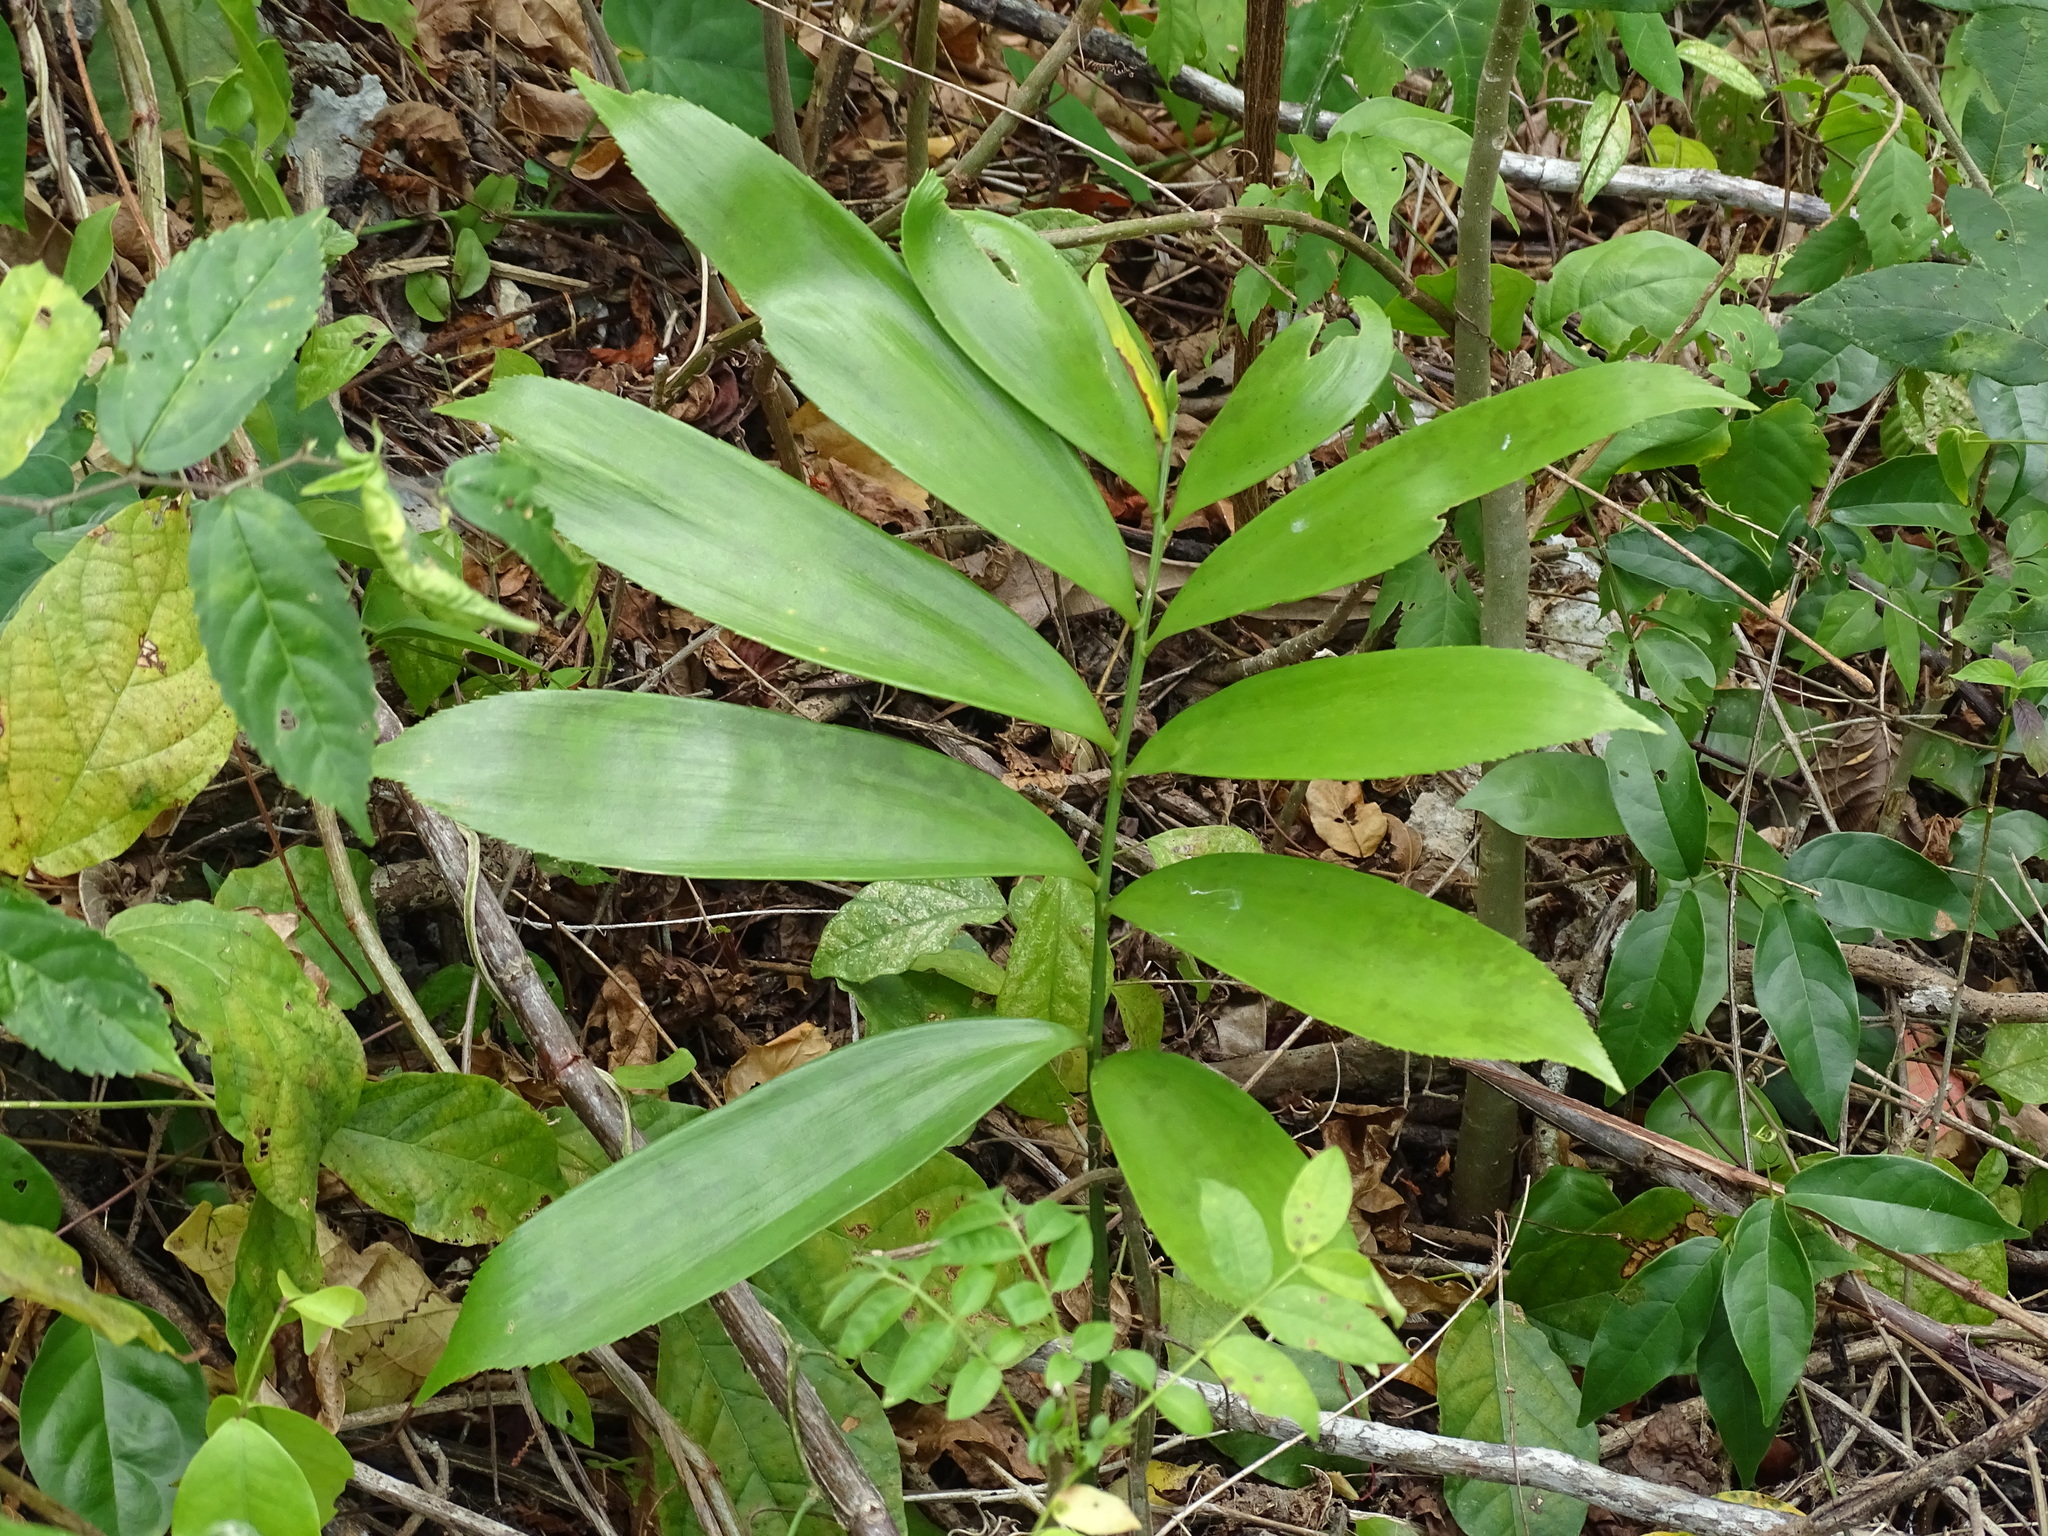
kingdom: Plantae
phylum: Tracheophyta
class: Cycadopsida
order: Cycadales
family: Zamiaceae
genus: Zamia
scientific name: Zamia prasina
